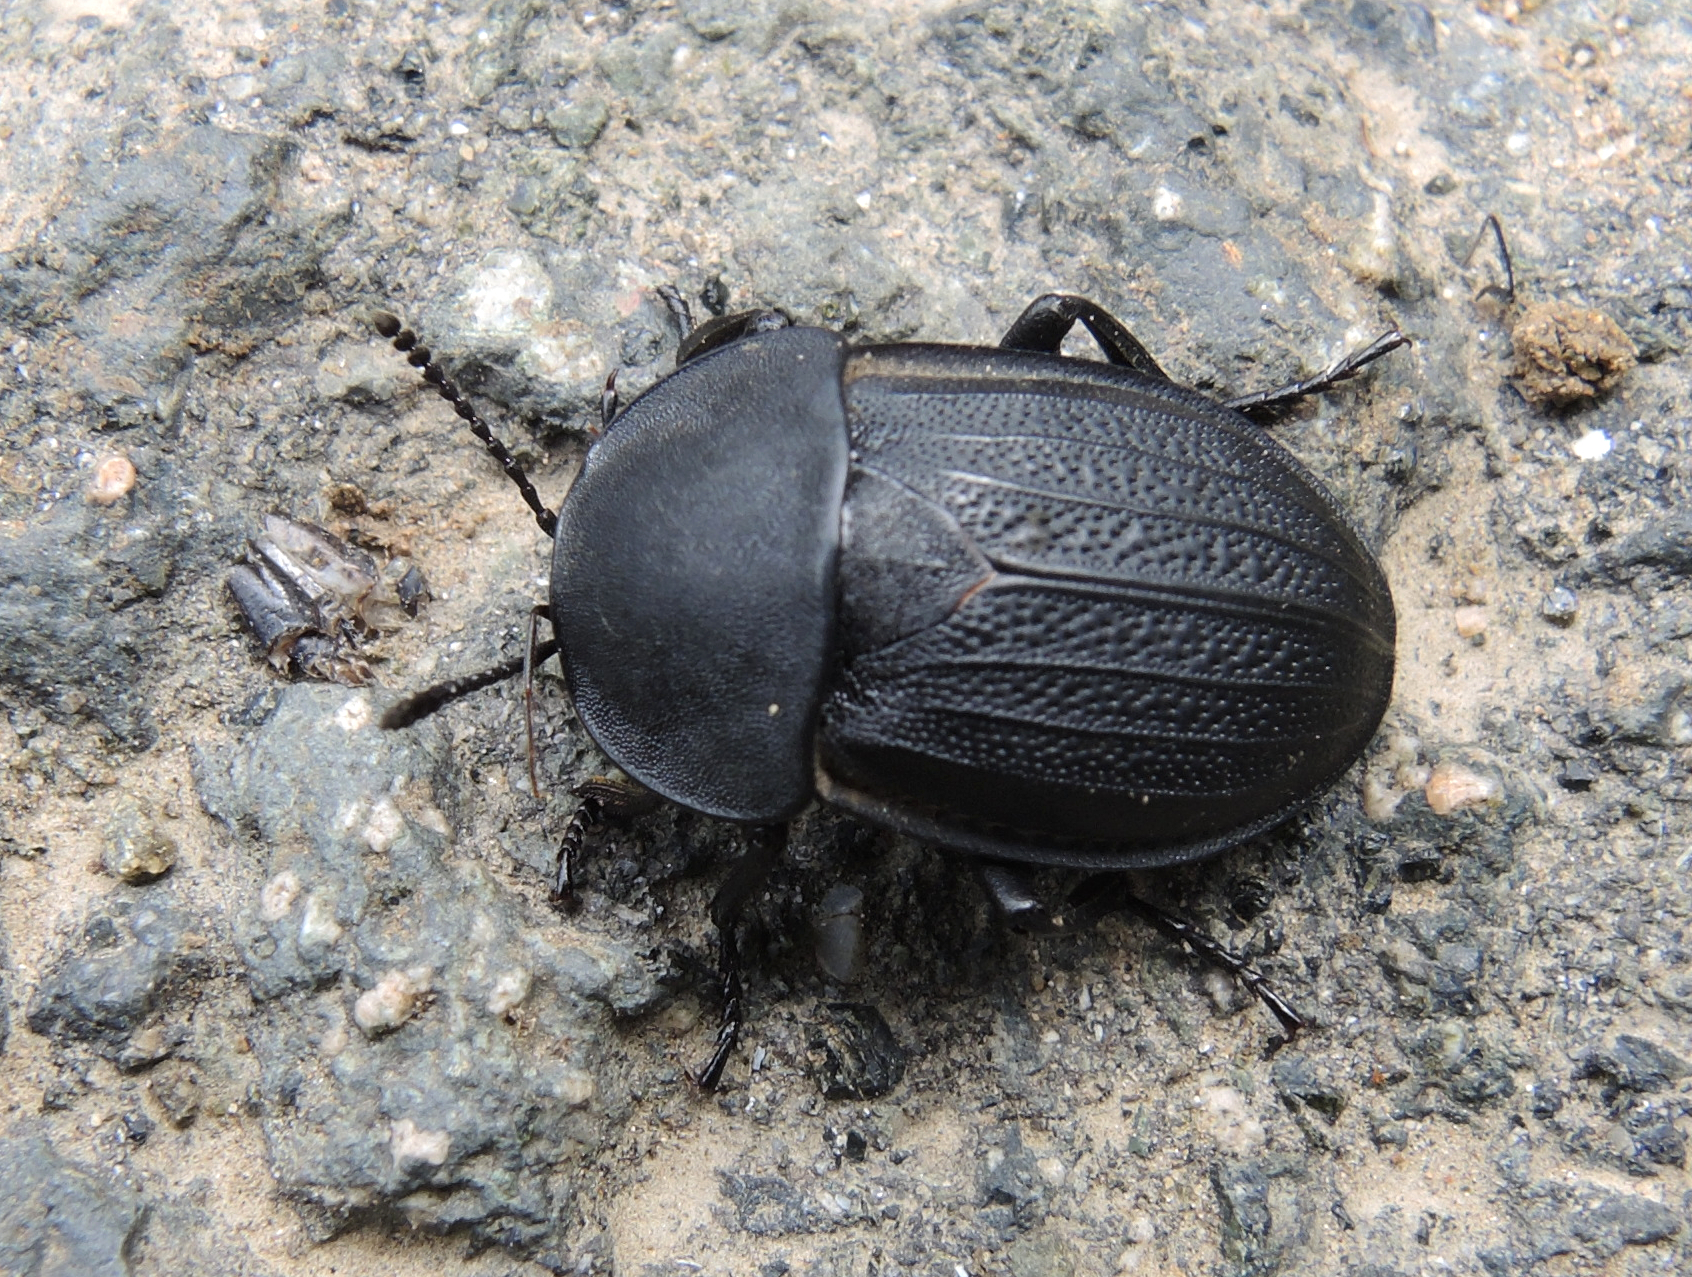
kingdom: Animalia
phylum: Arthropoda
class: Insecta
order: Coleoptera
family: Staphylinidae
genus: Silpha
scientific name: Silpha obscura
